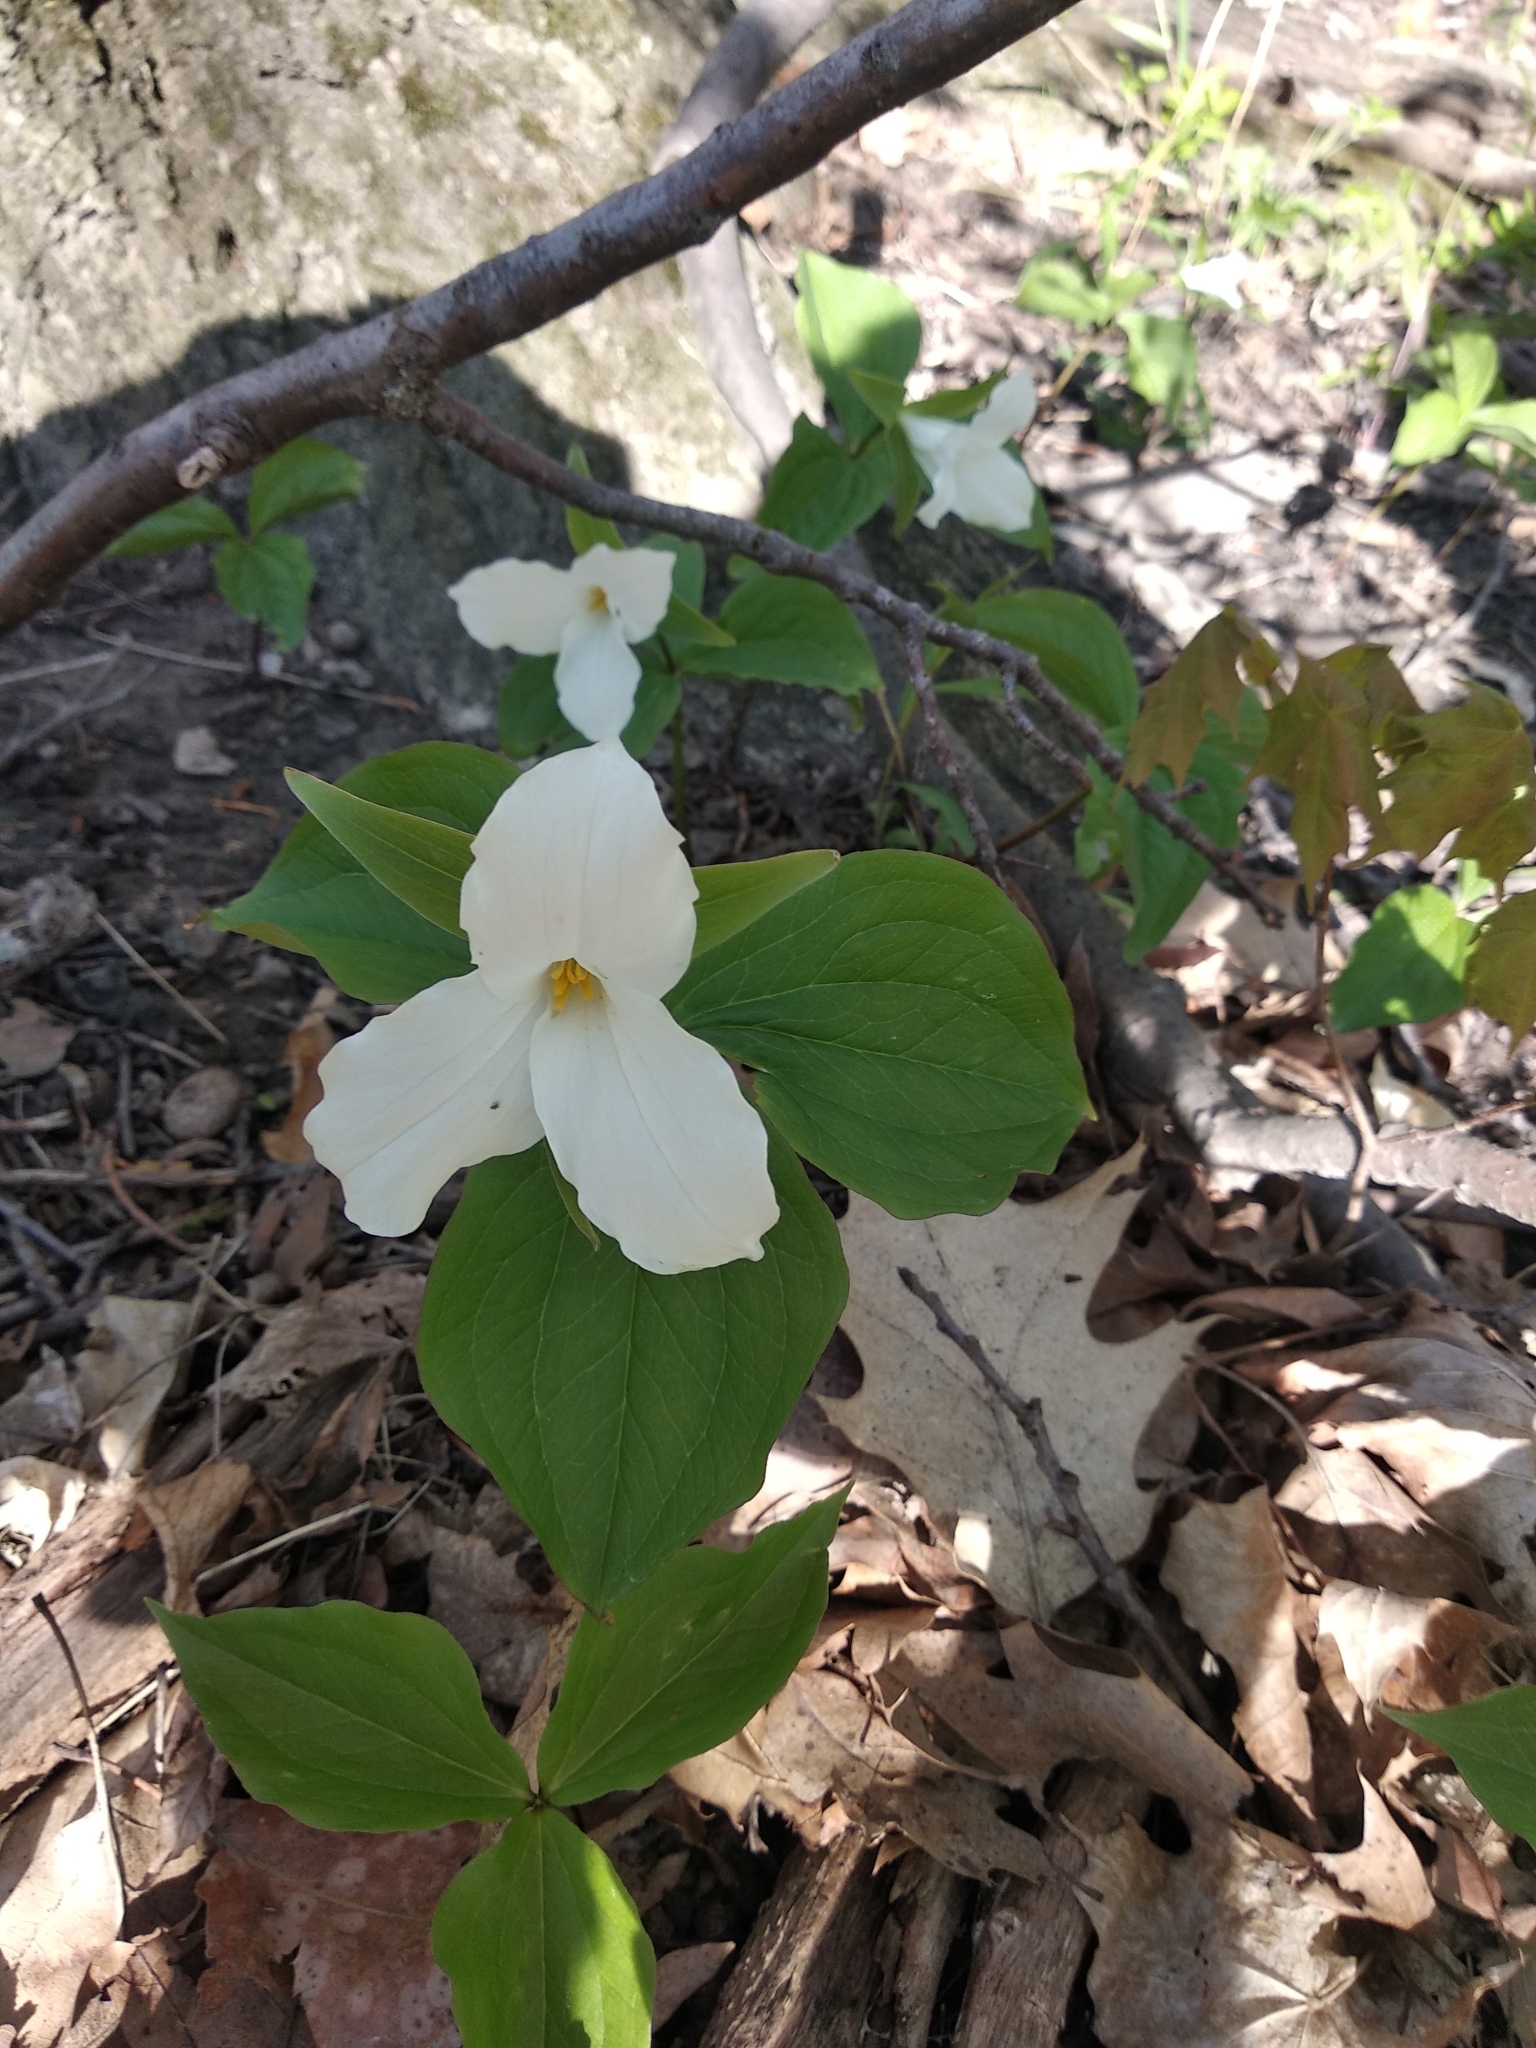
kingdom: Plantae
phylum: Tracheophyta
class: Liliopsida
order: Liliales
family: Melanthiaceae
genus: Trillium
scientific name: Trillium grandiflorum
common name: Great white trillium
